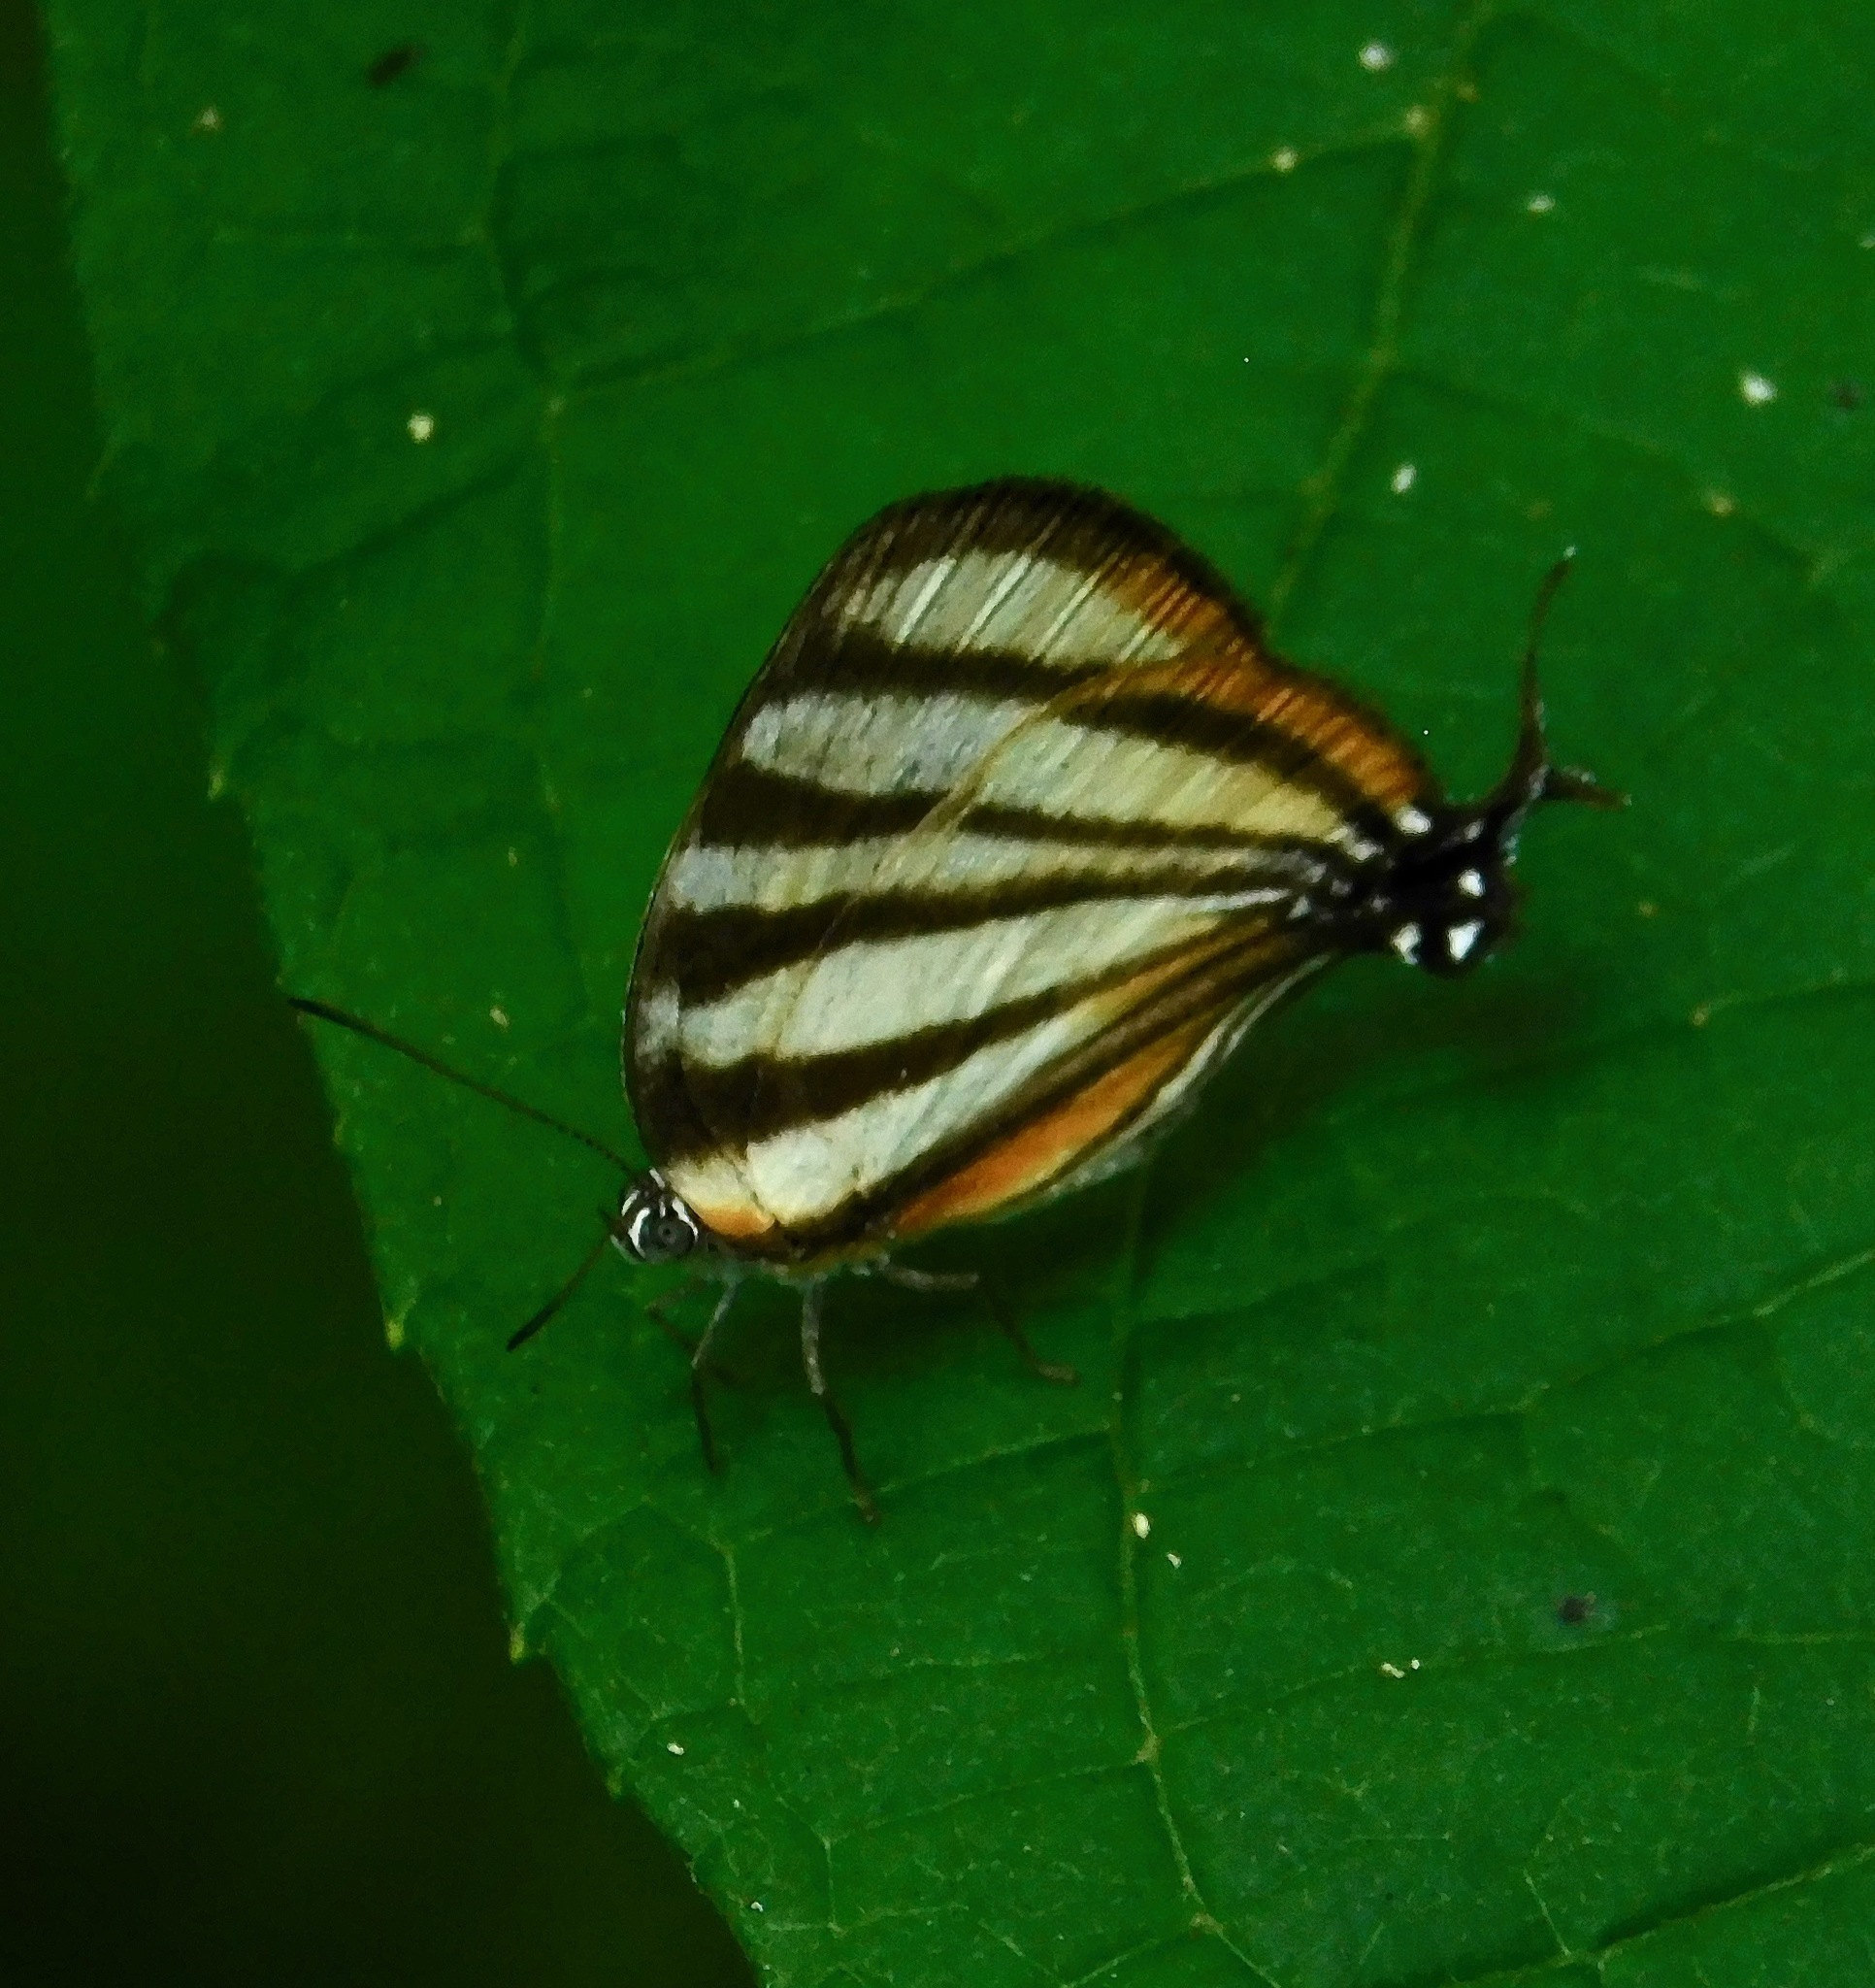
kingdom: Animalia
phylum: Arthropoda
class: Insecta
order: Lepidoptera
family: Lycaenidae
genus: Arawacus
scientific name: Arawacus separata
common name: Separated stripestreak
